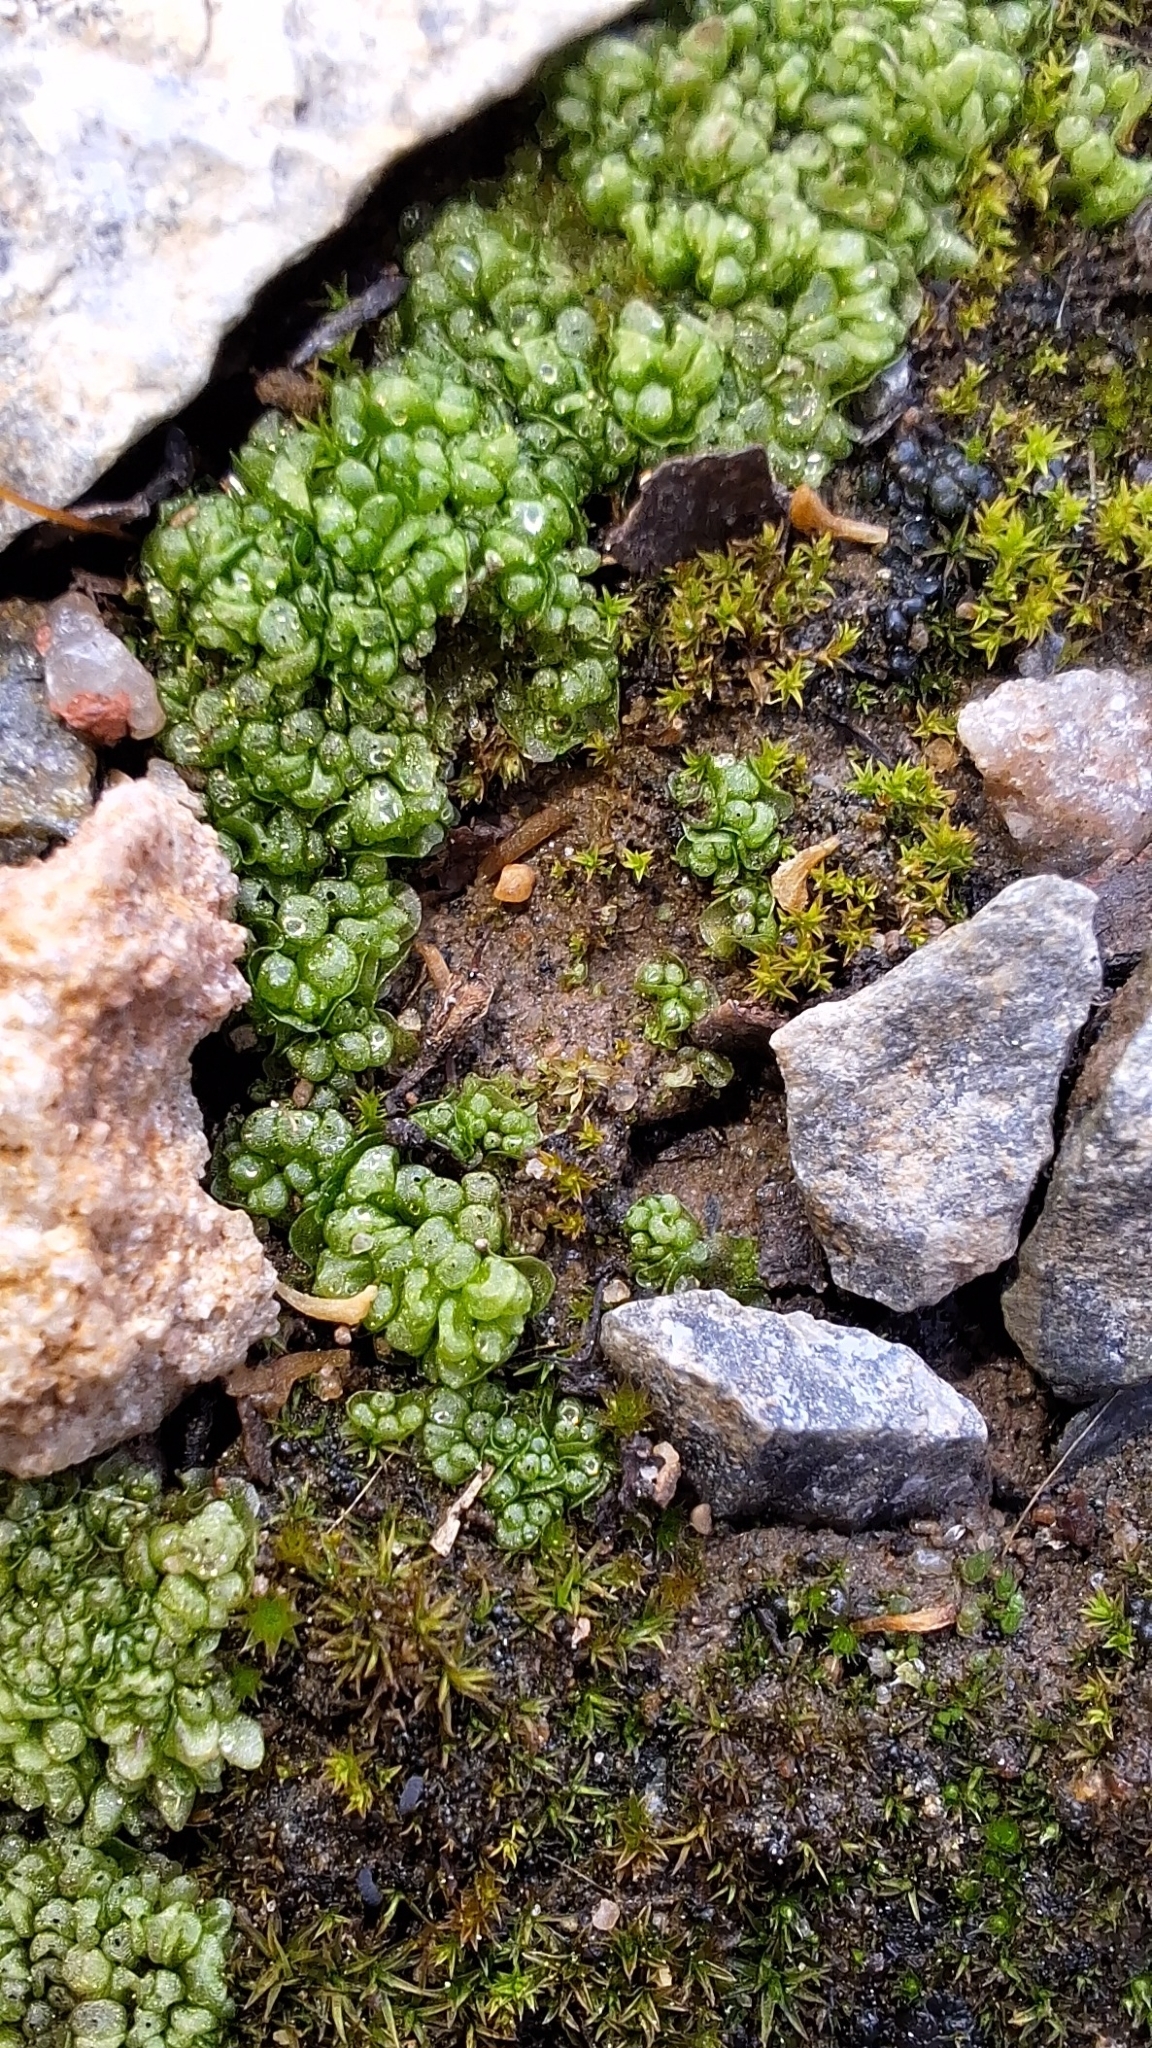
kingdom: Plantae
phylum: Marchantiophyta
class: Marchantiopsida
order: Sphaerocarpales
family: Sphaerocarpaceae
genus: Sphaerocarpos
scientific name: Sphaerocarpos texanus
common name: Texas balloonwort
